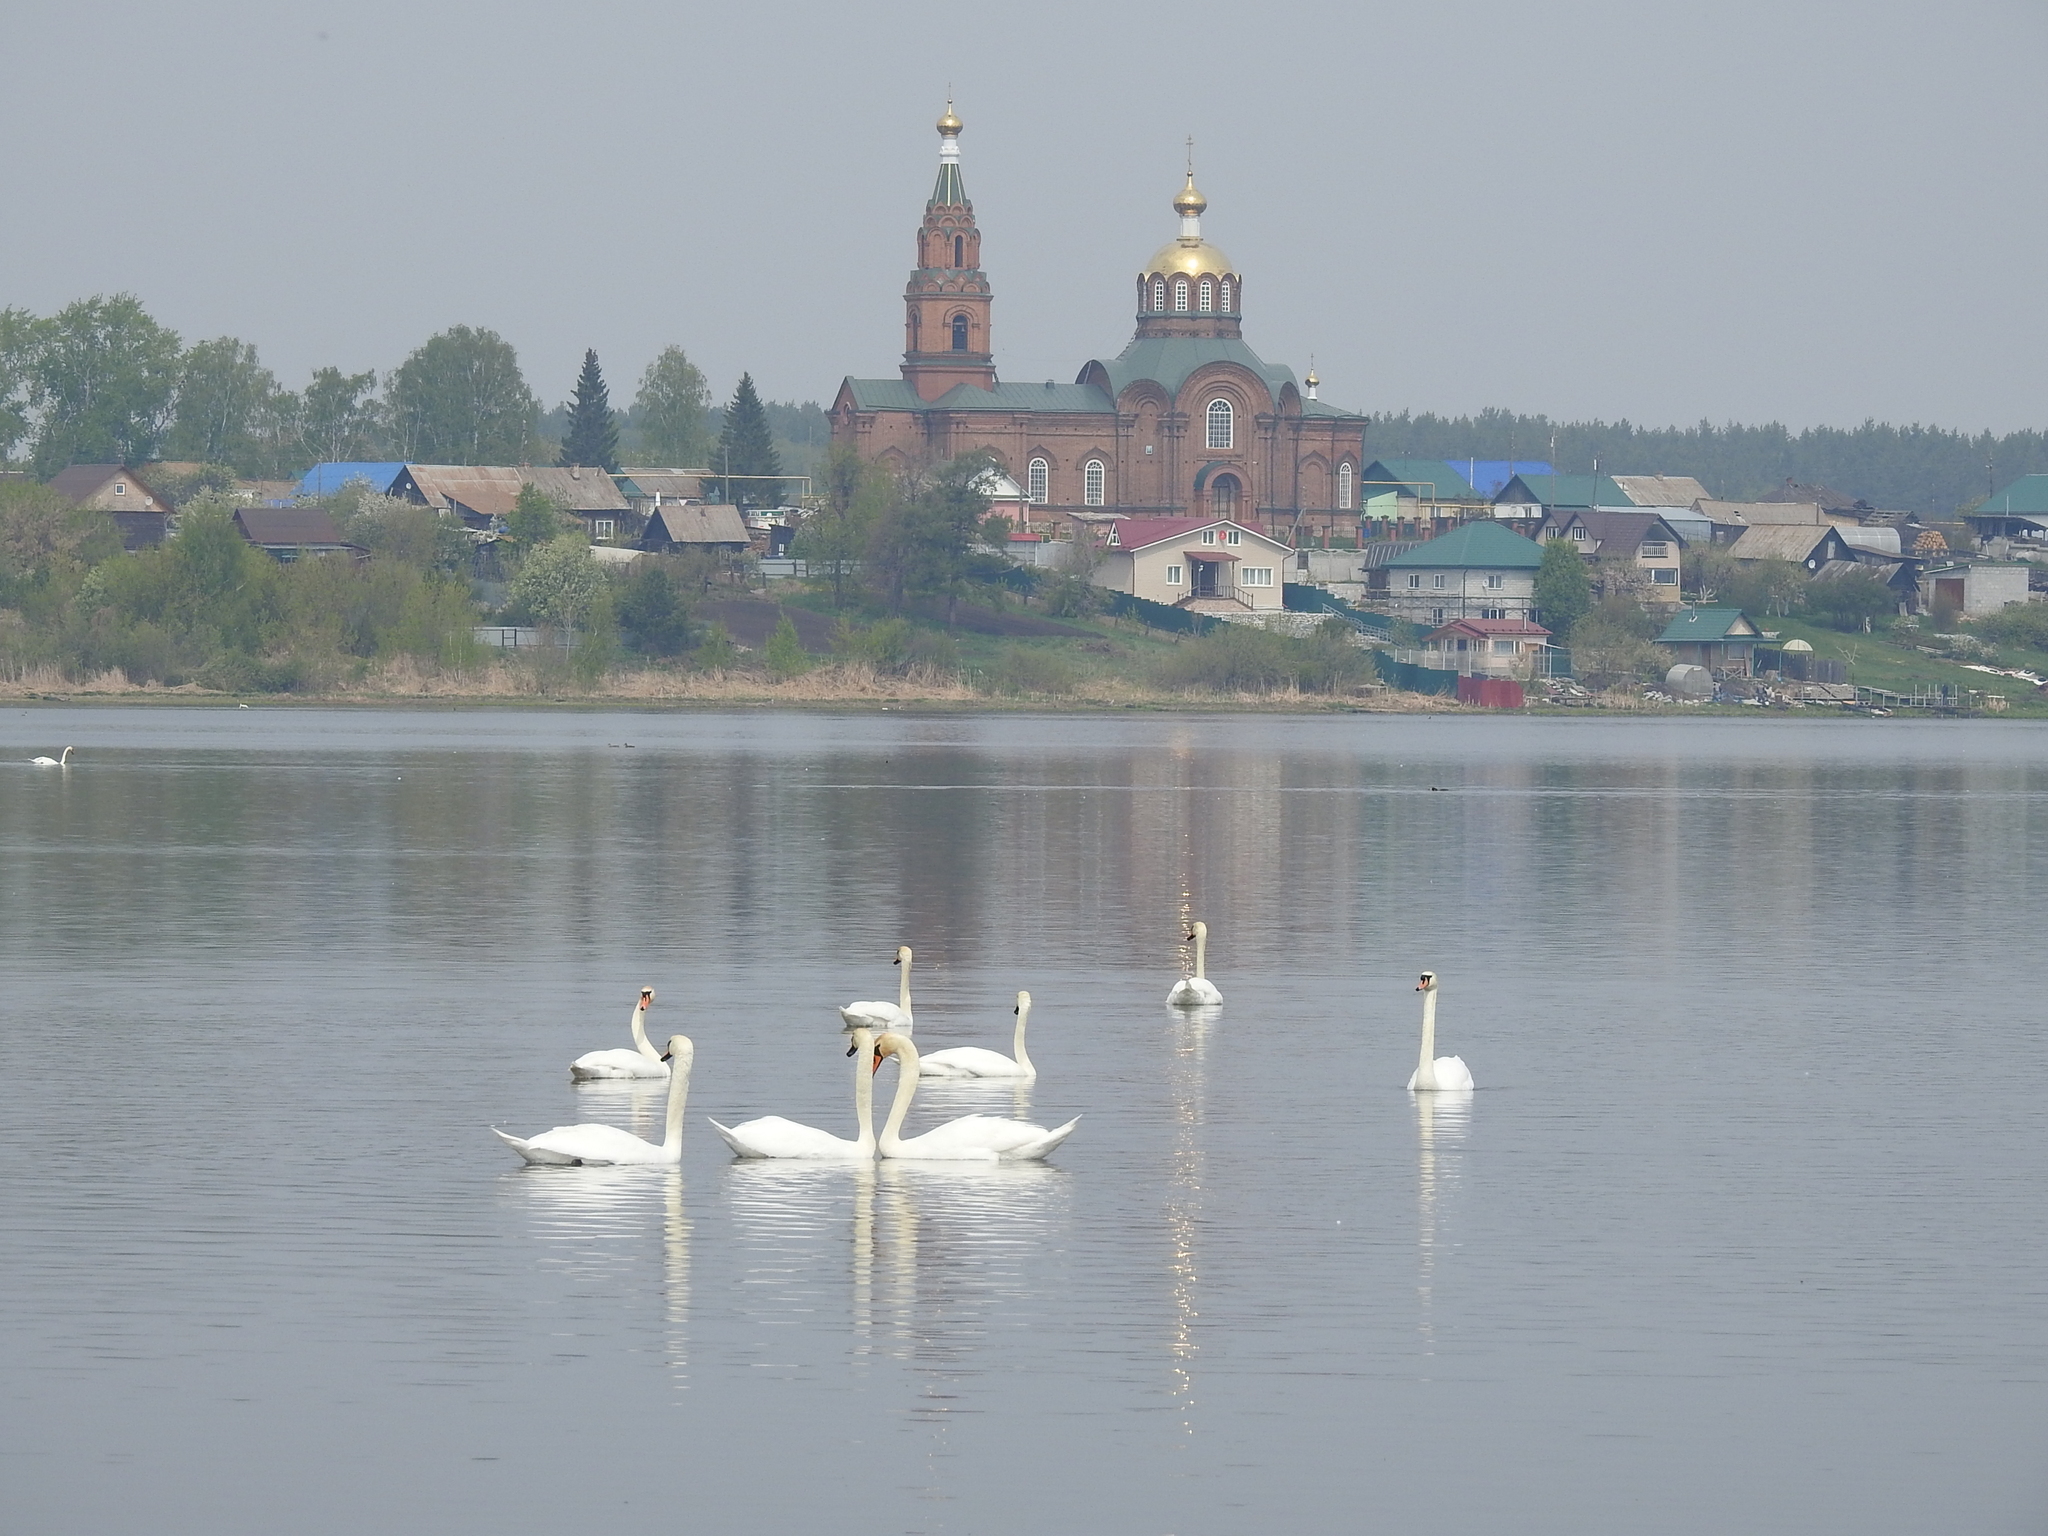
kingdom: Animalia
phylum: Chordata
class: Aves
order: Anseriformes
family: Anatidae
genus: Cygnus
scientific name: Cygnus olor
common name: Mute swan
